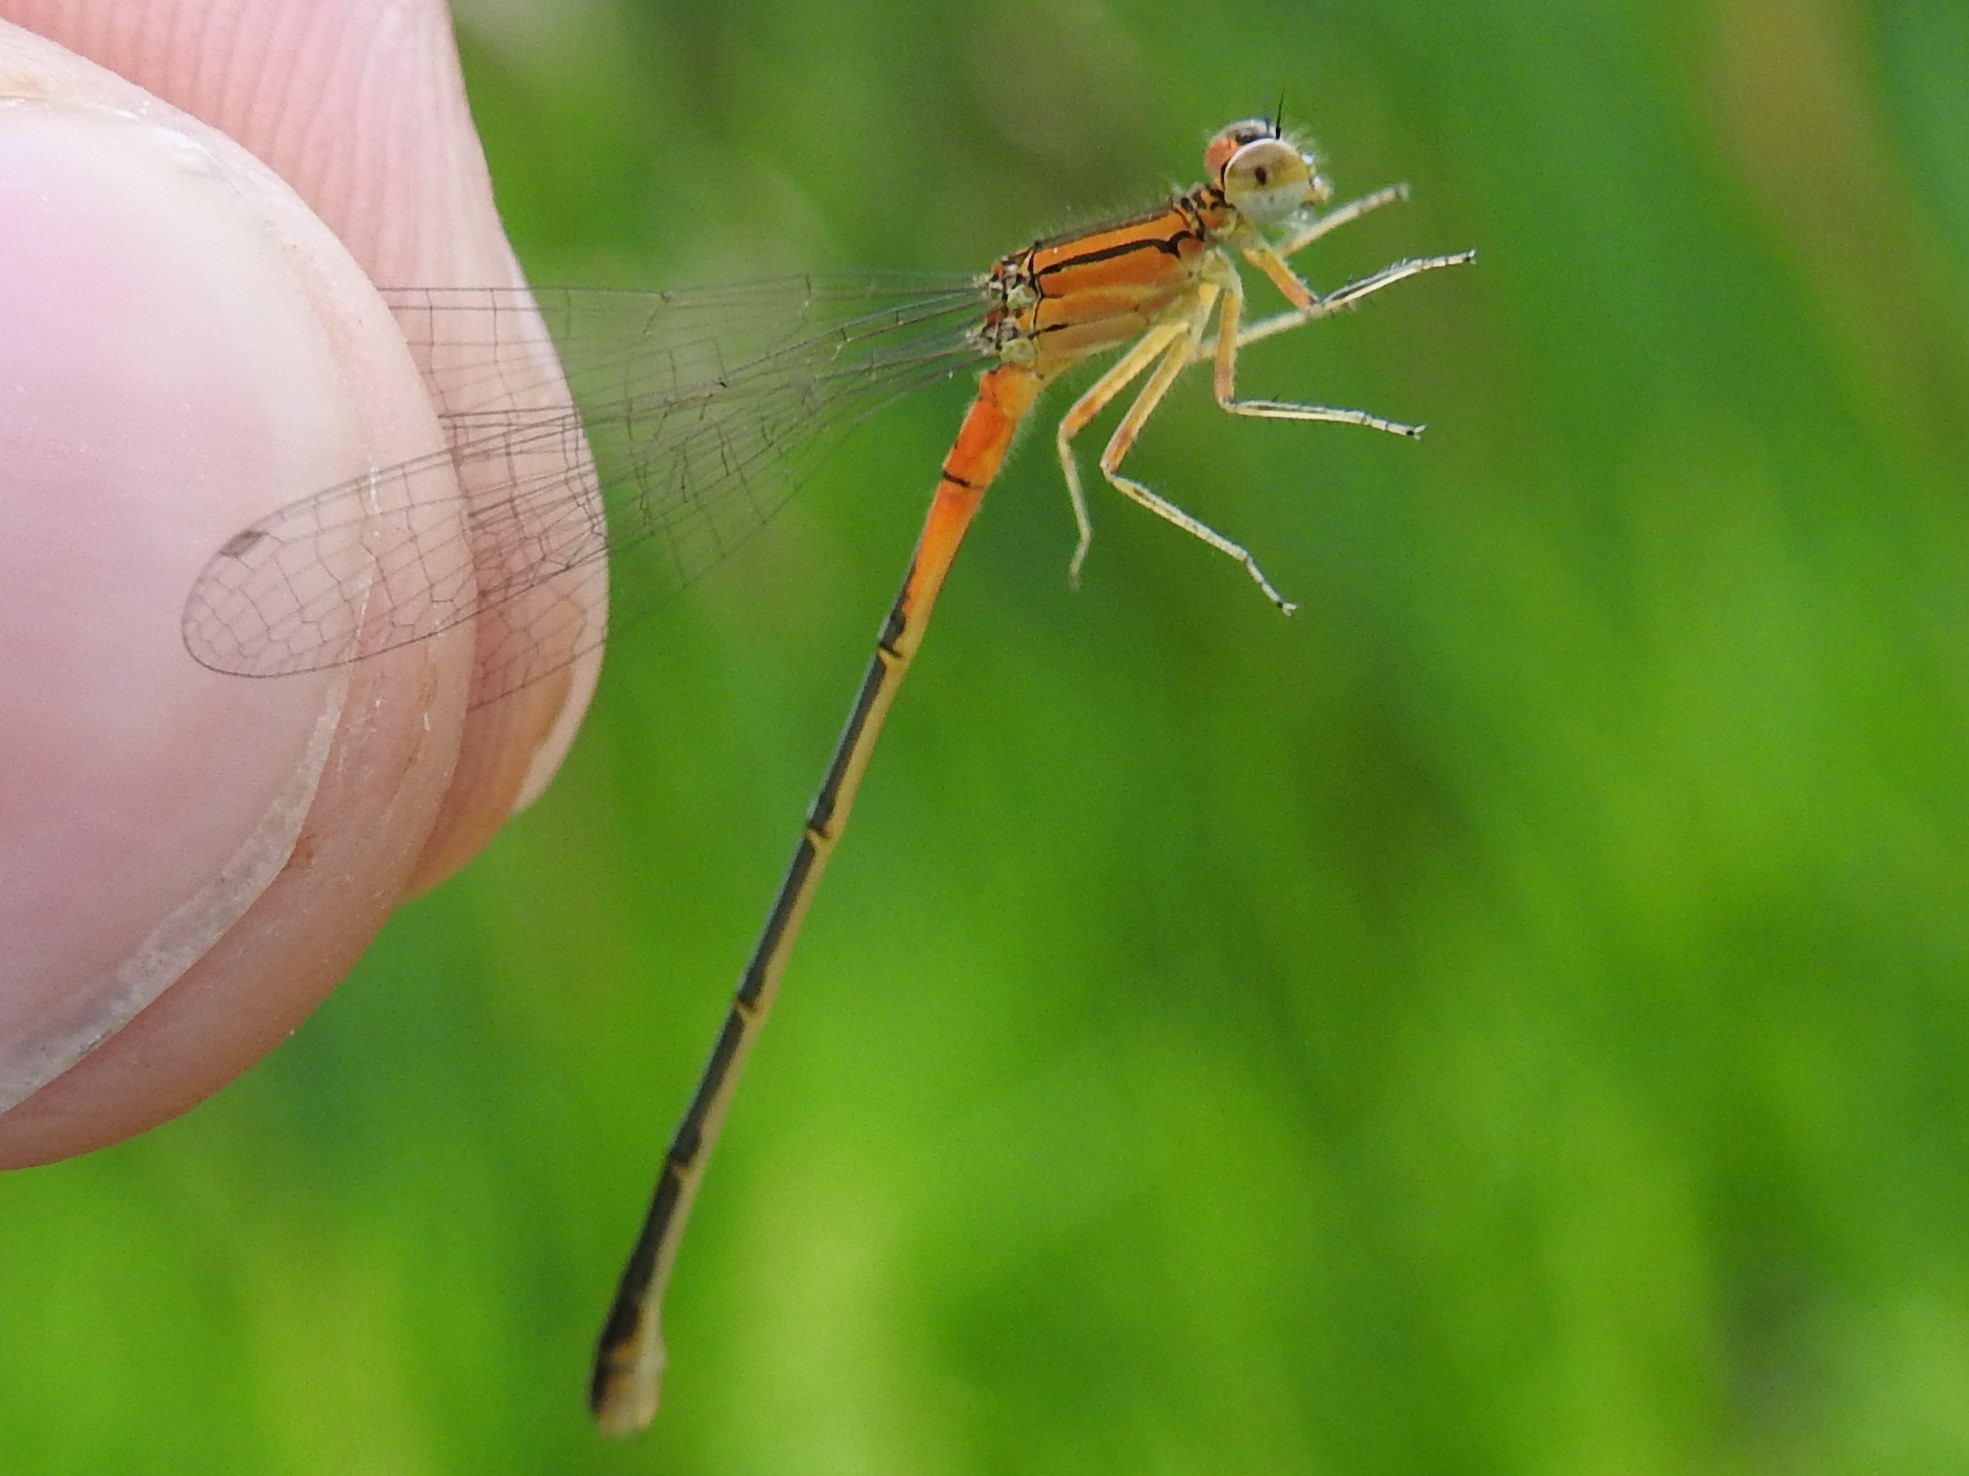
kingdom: Animalia
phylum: Arthropoda
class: Insecta
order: Odonata
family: Coenagrionidae
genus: Ischnura
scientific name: Ischnura verticalis
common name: Eastern forktail
